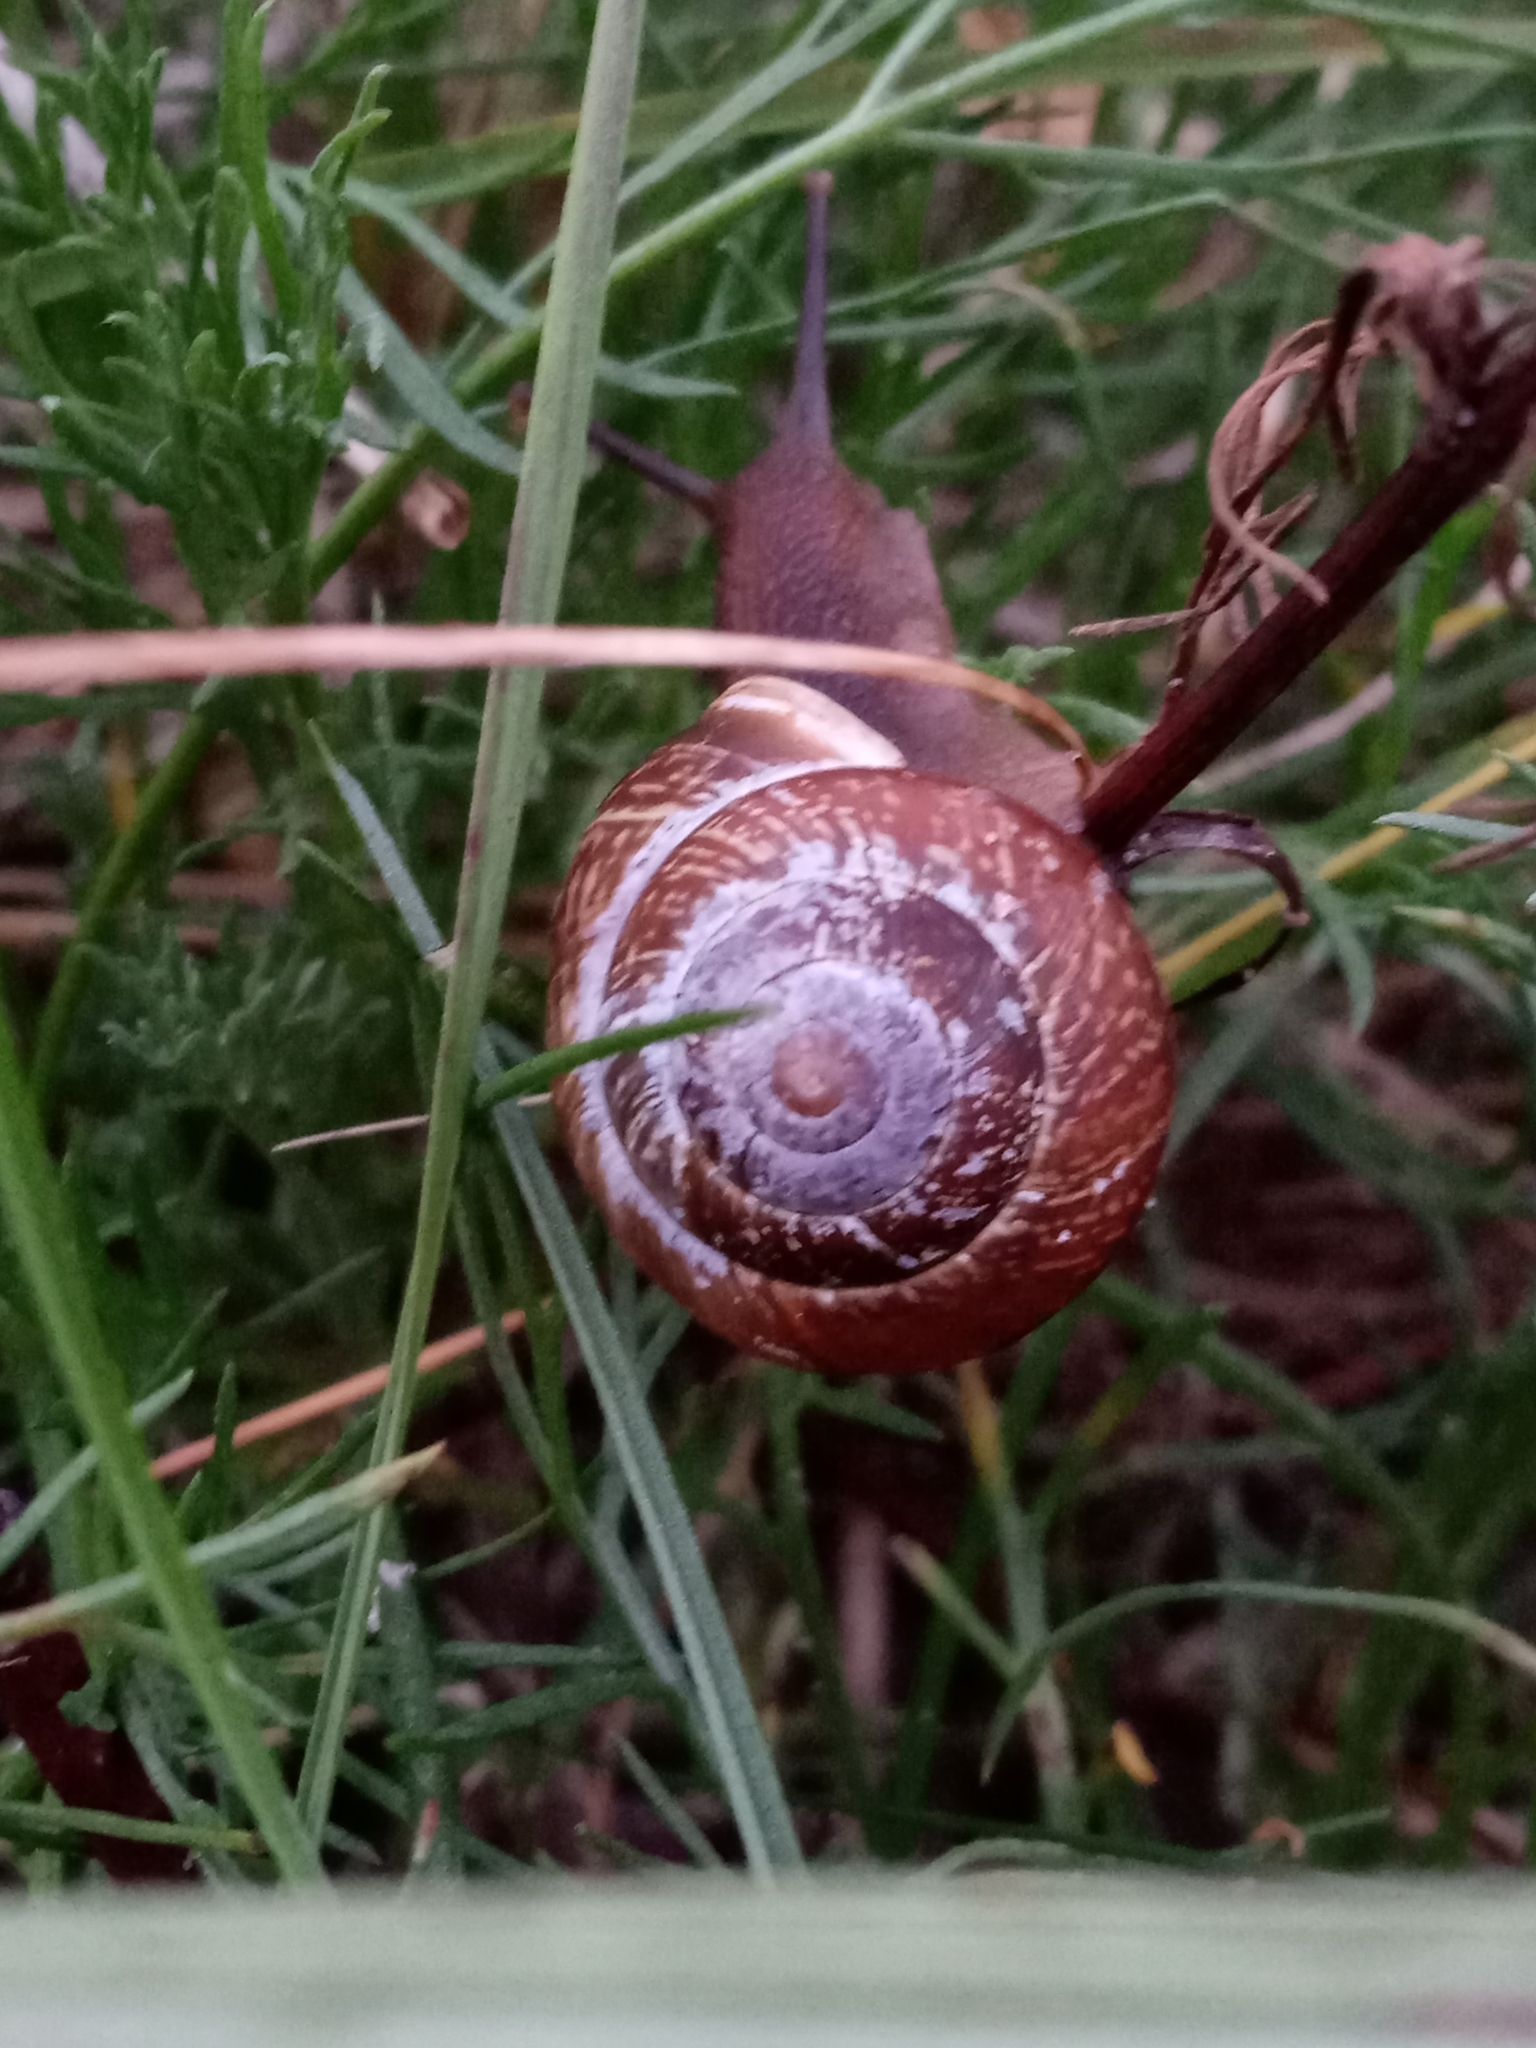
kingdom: Animalia
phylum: Mollusca
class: Gastropoda
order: Stylommatophora
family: Helicidae
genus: Arianta
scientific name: Arianta arbustorum
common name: Copse snail
